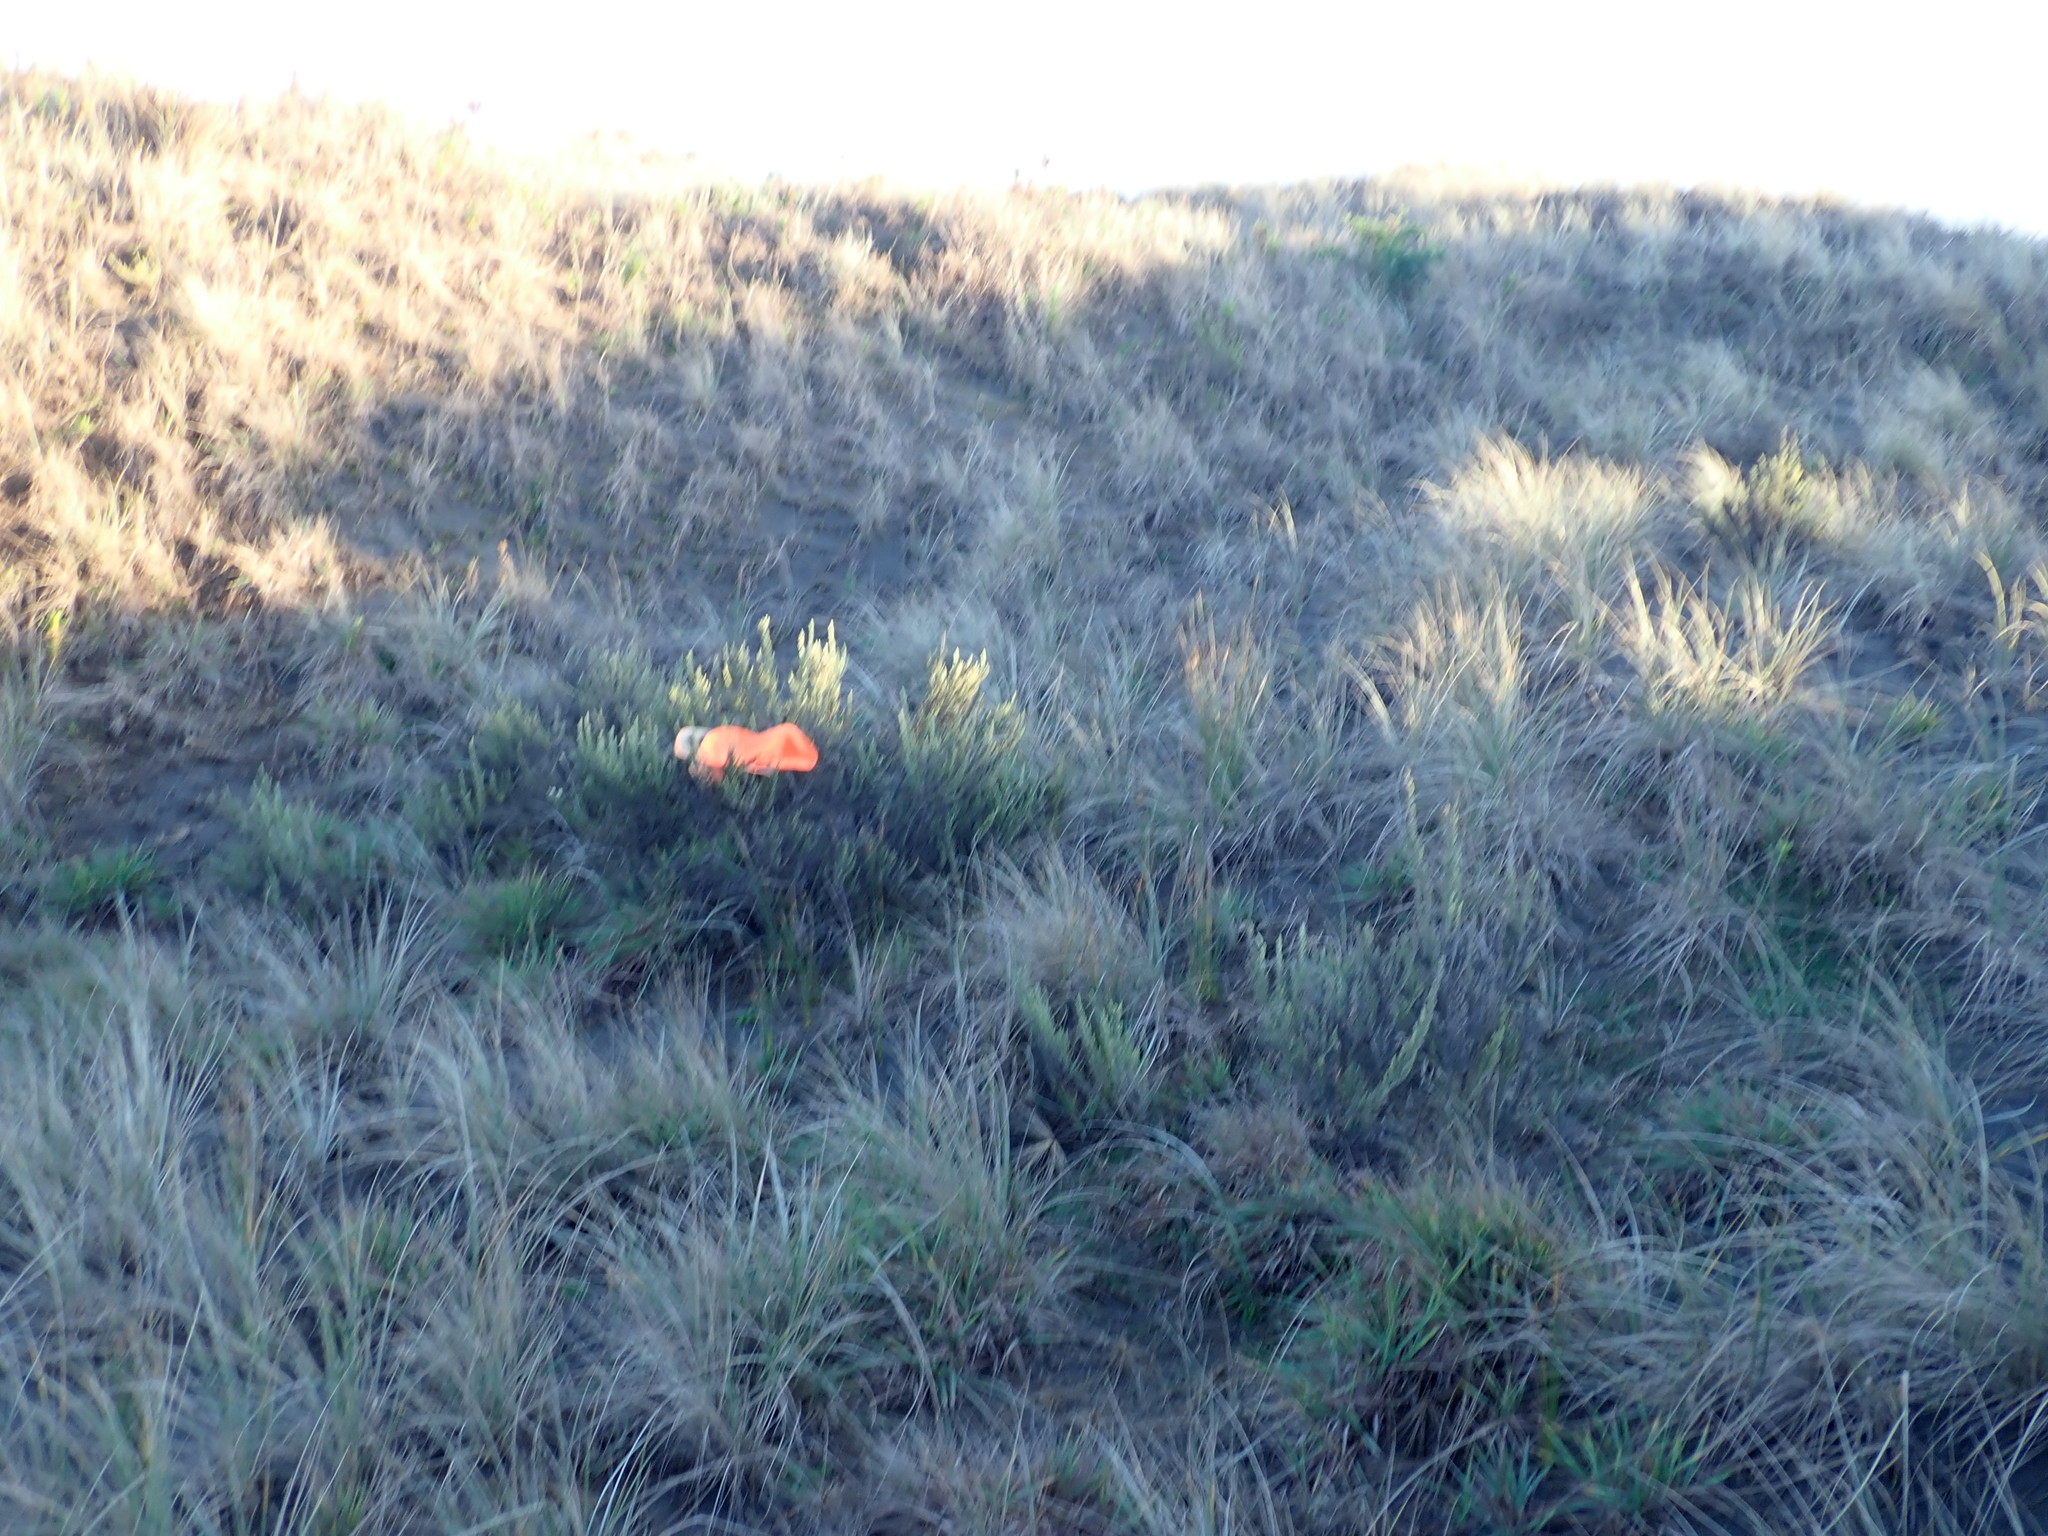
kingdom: Plantae
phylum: Tracheophyta
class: Magnoliopsida
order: Asterales
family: Asteraceae
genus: Ozothamnus
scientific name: Ozothamnus leptophyllus
